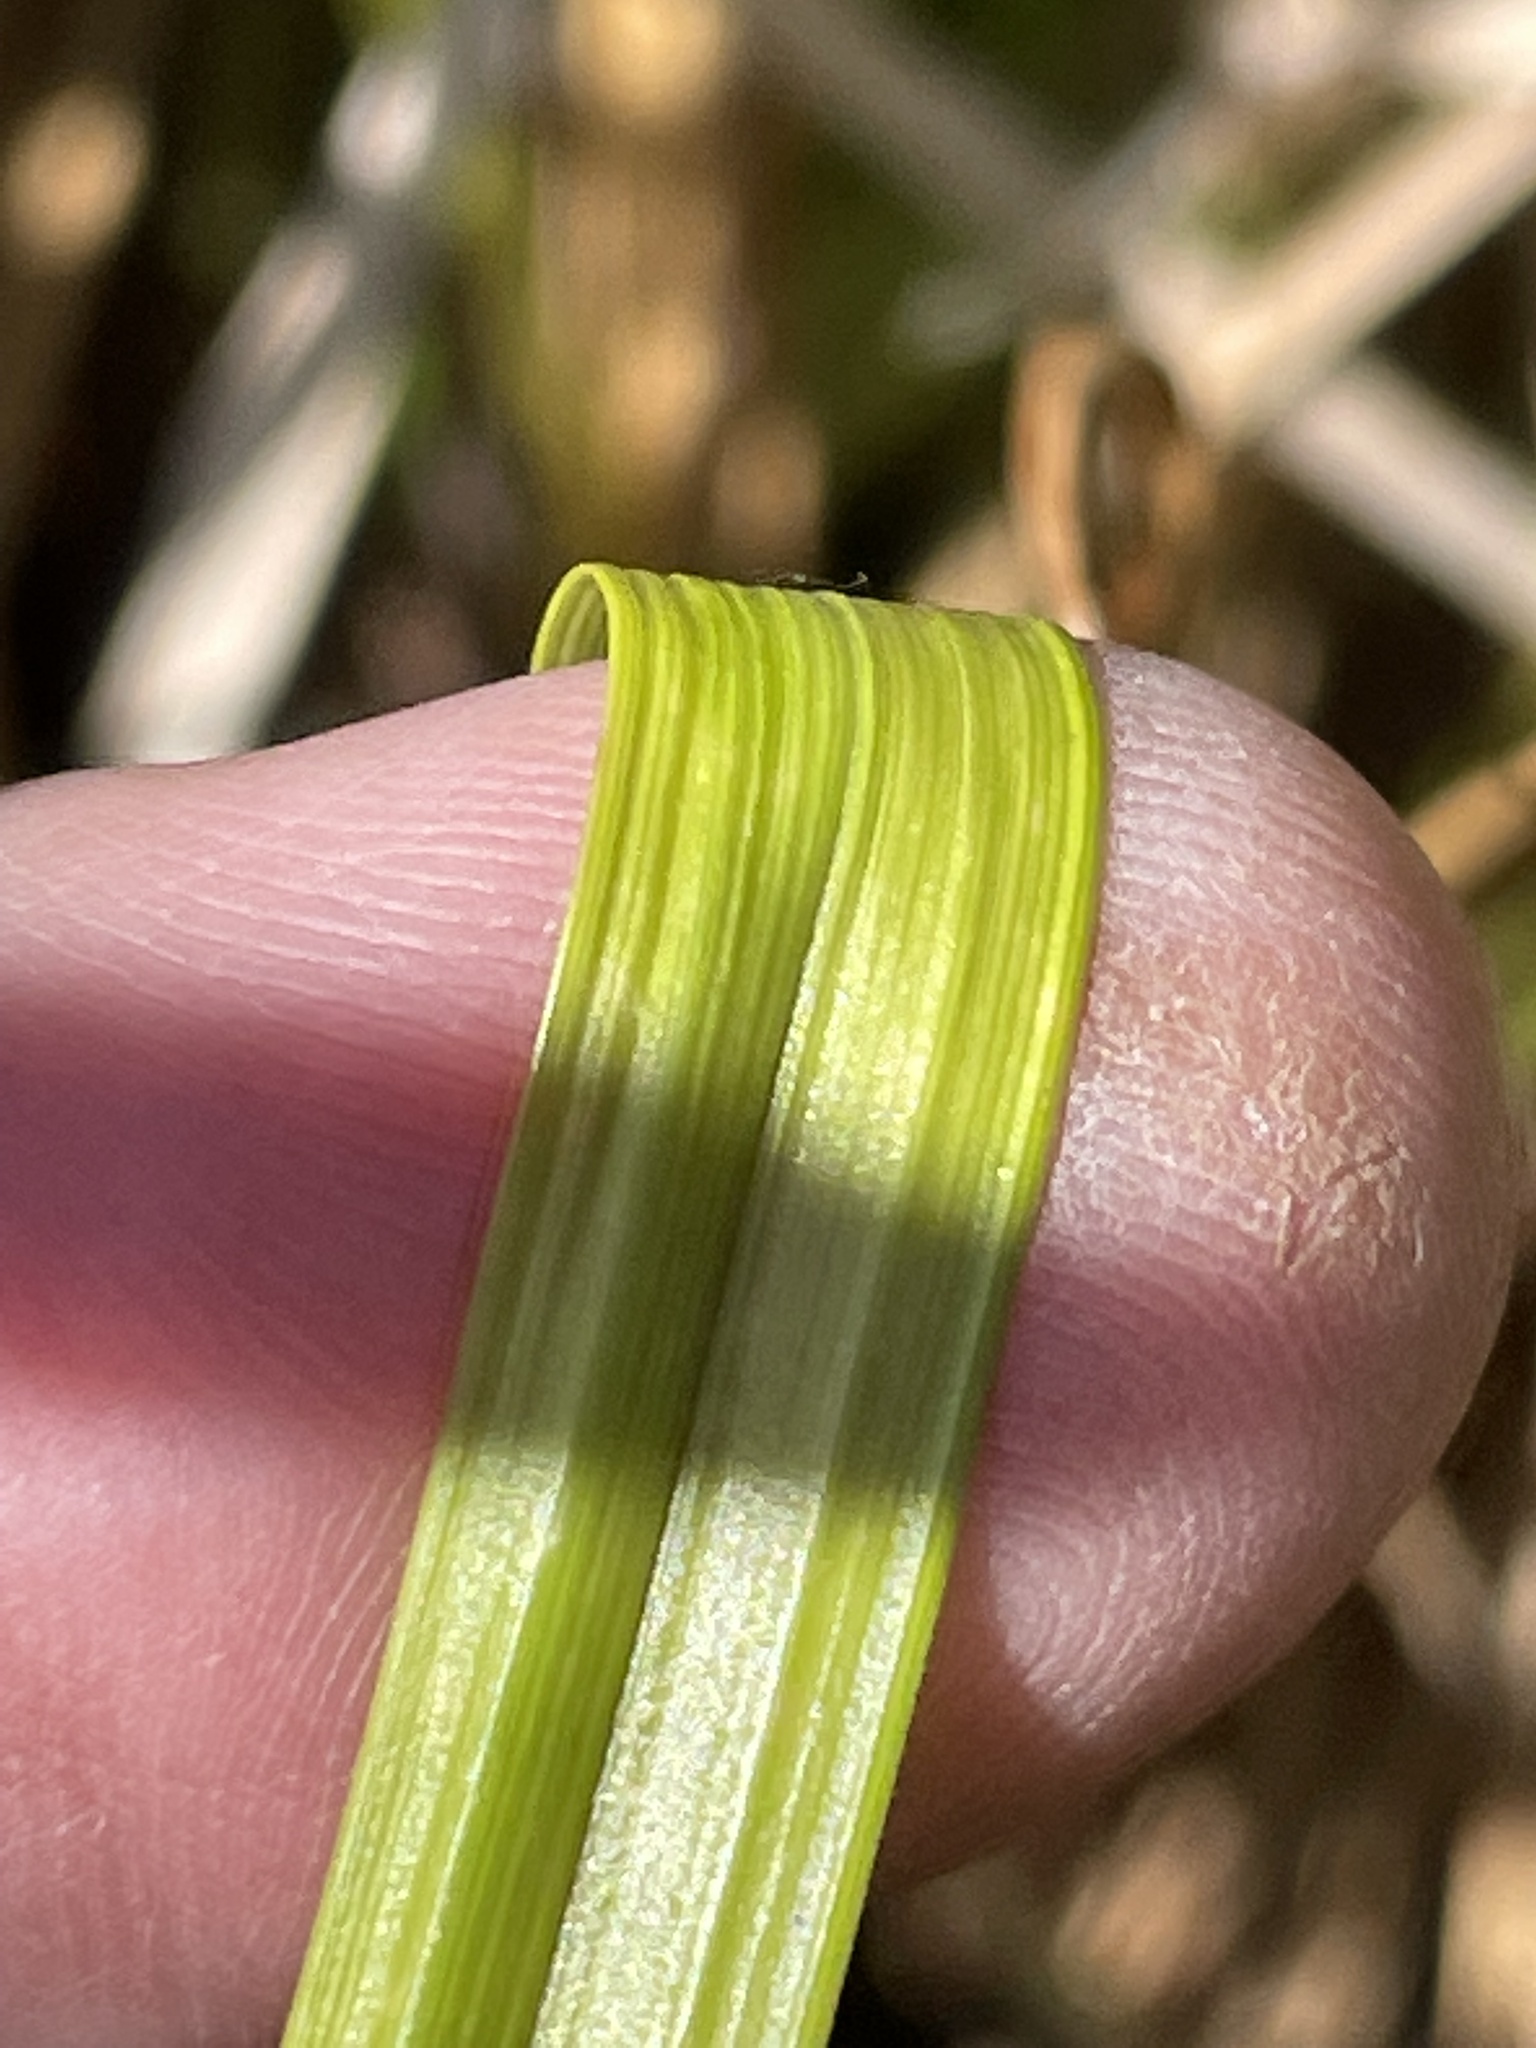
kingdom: Plantae
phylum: Tracheophyta
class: Liliopsida
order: Poales
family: Cyperaceae
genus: Carex
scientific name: Carex lurida
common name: Sallow sedge
